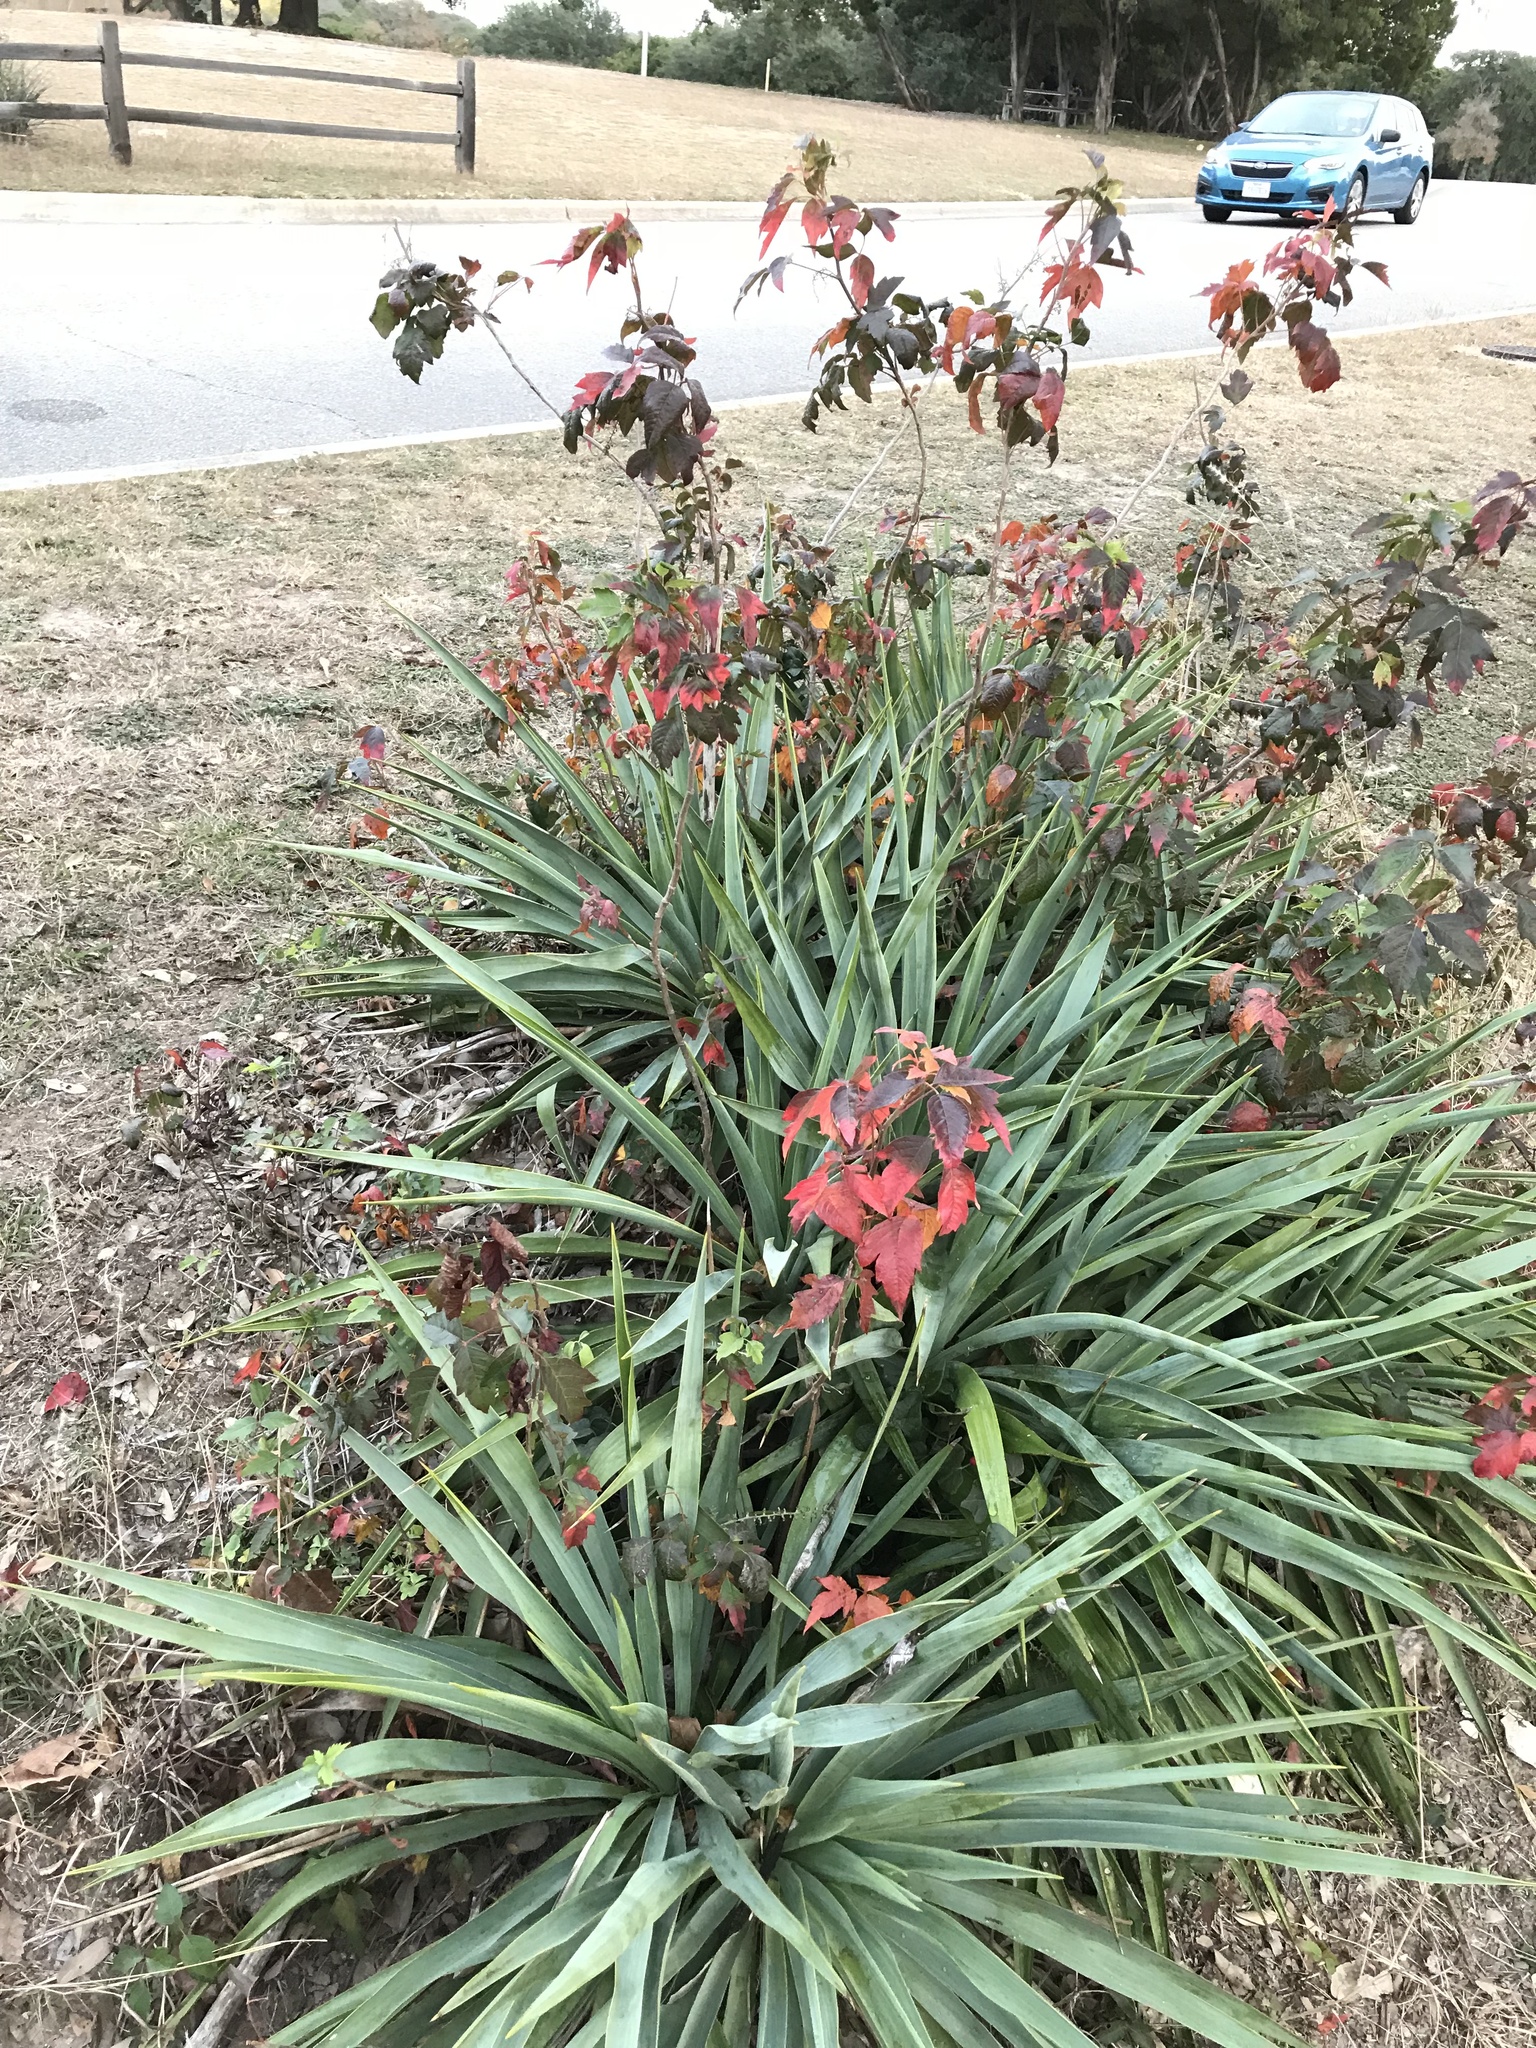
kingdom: Plantae
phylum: Tracheophyta
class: Magnoliopsida
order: Sapindales
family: Anacardiaceae
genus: Toxicodendron
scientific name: Toxicodendron radicans
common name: Poison ivy
